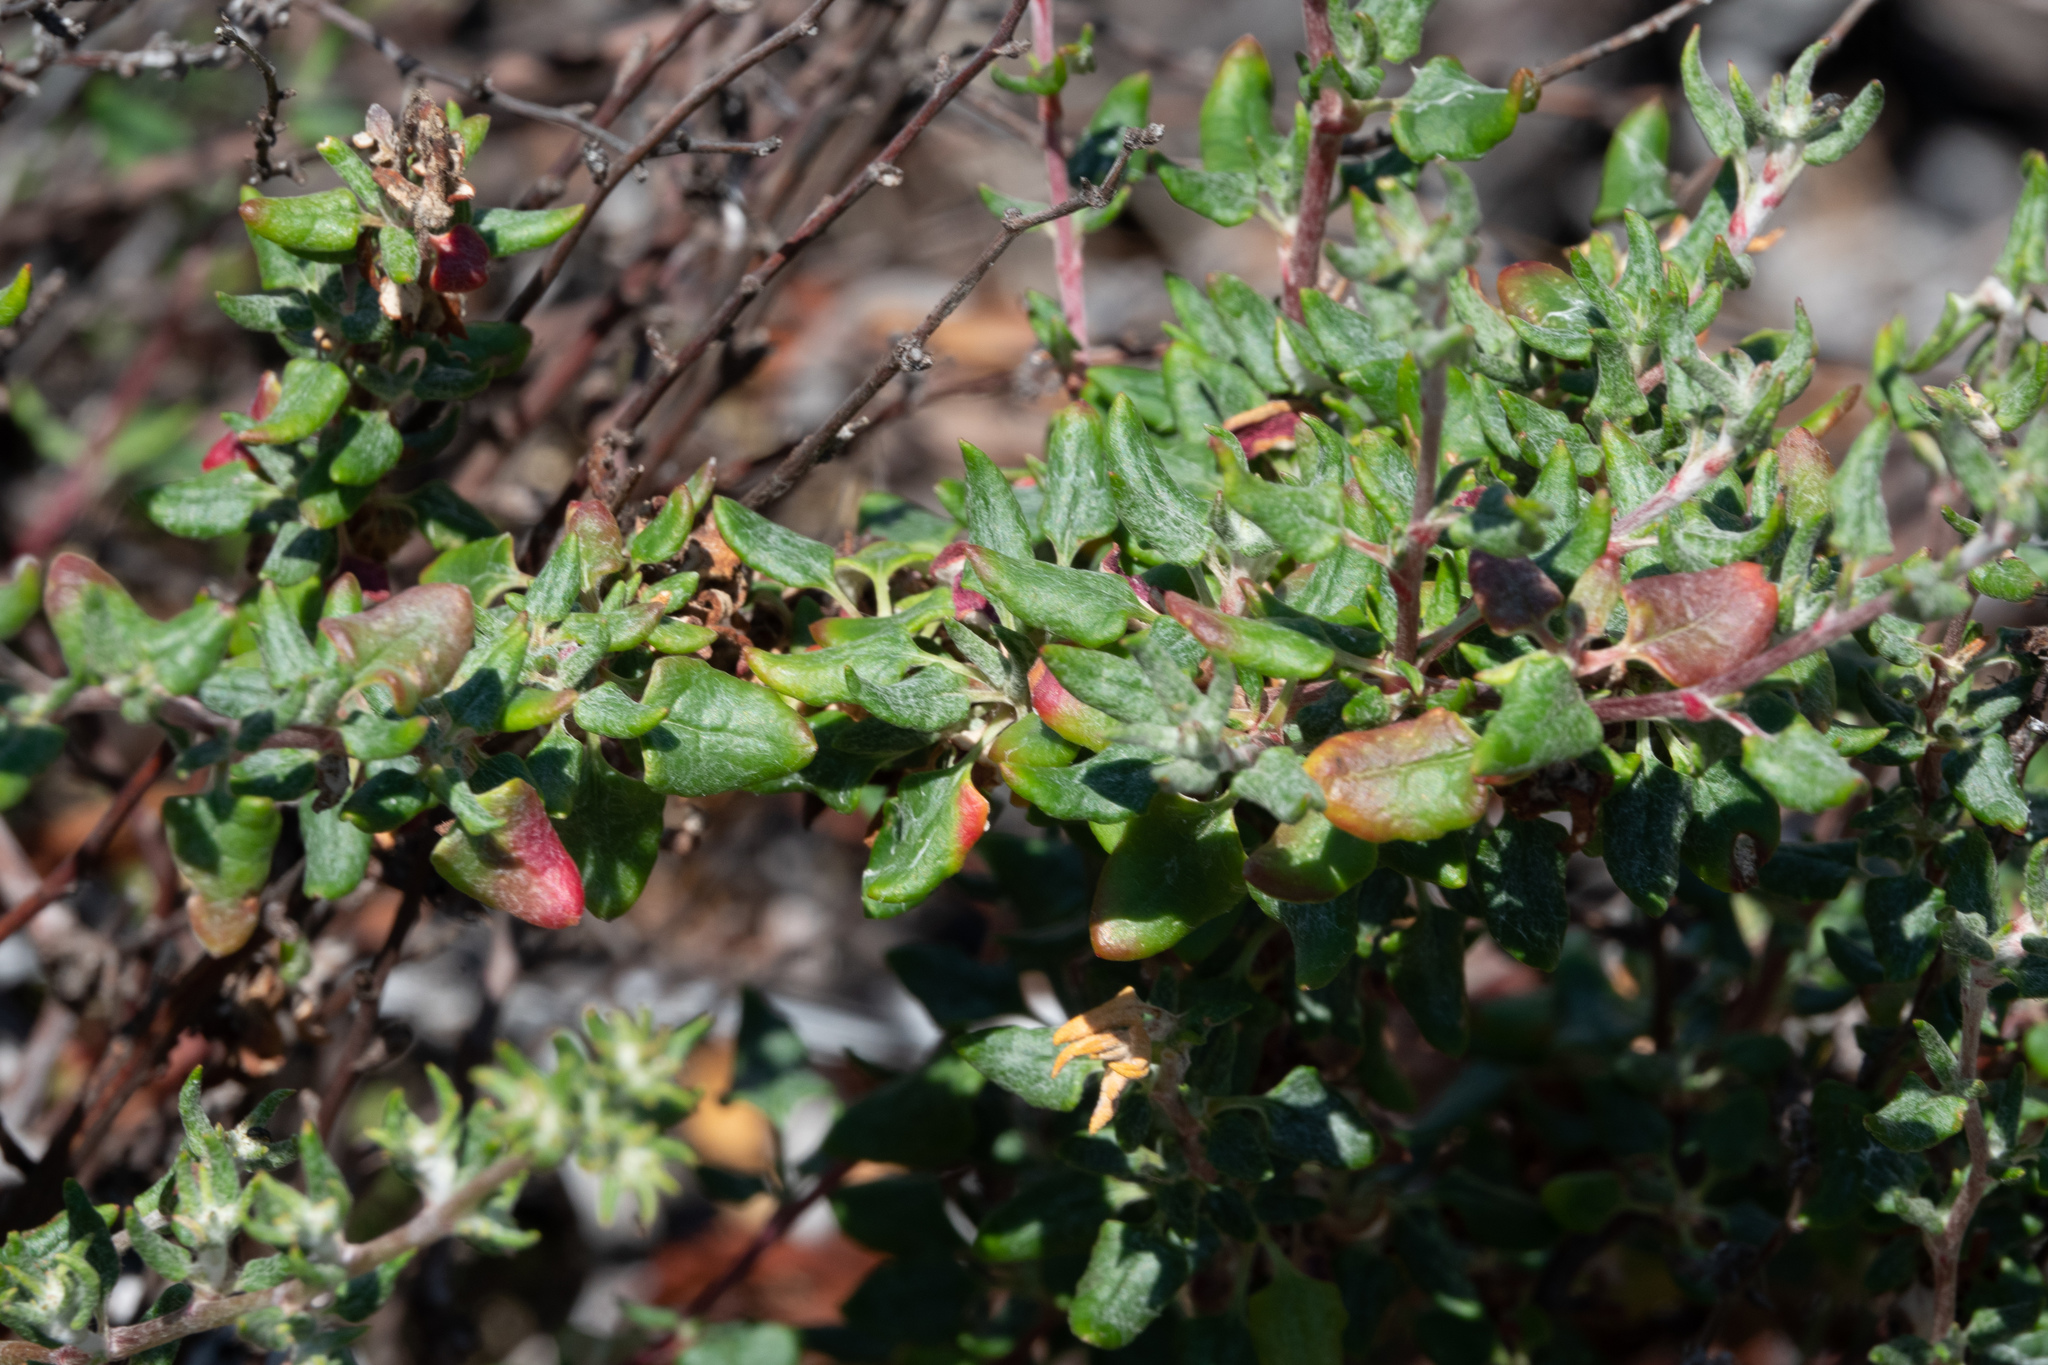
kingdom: Plantae
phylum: Tracheophyta
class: Magnoliopsida
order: Caryophyllales
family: Polygonaceae
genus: Eriogonum
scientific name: Eriogonum parvifolium
